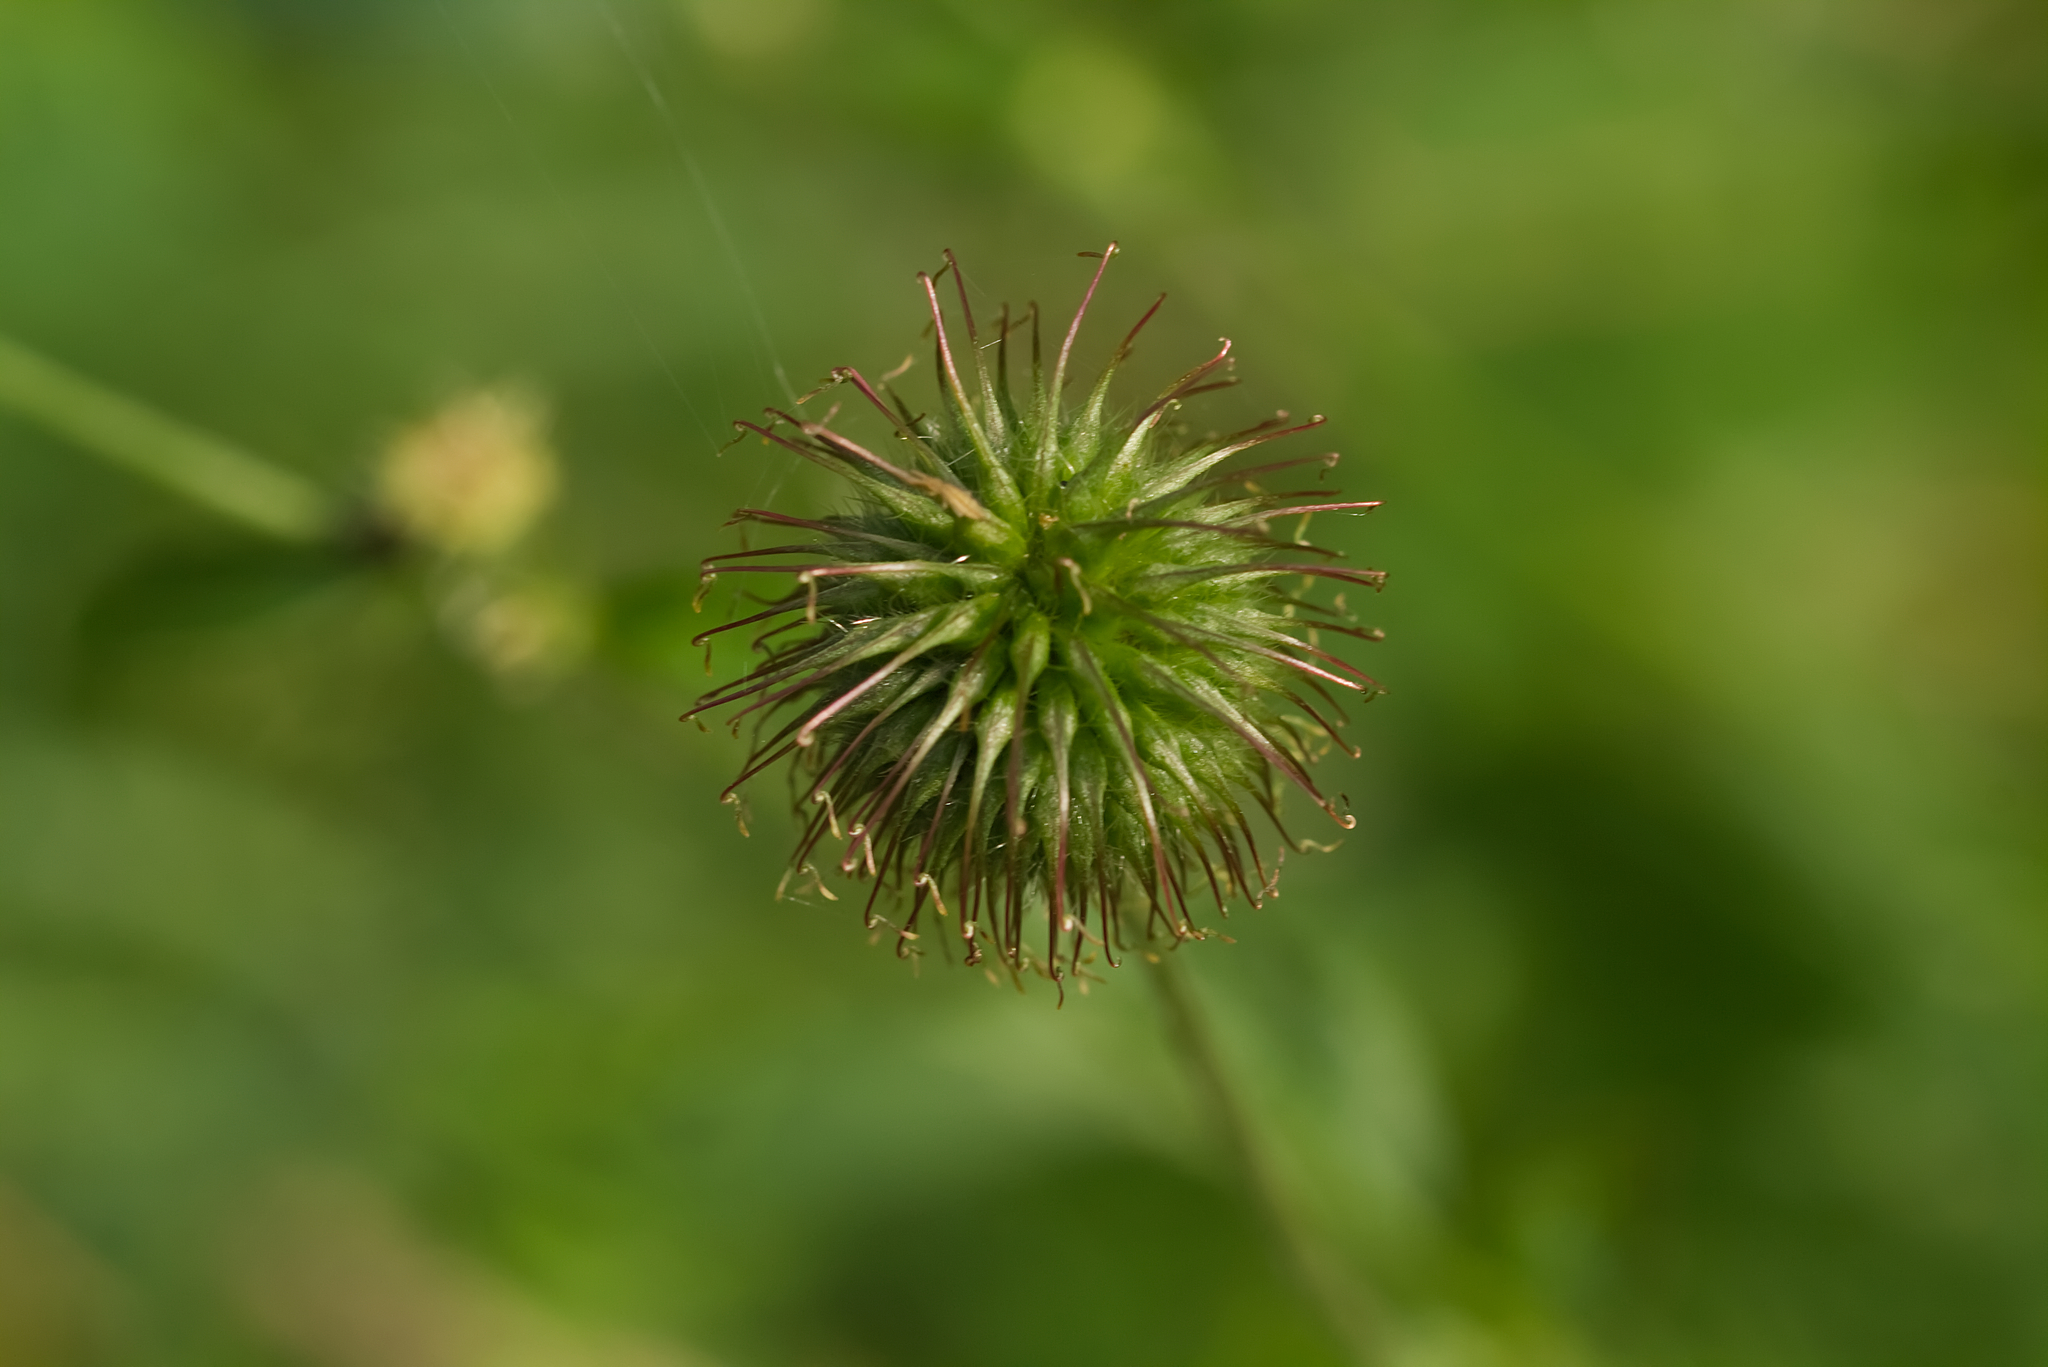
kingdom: Plantae
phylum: Tracheophyta
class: Magnoliopsida
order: Rosales
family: Rosaceae
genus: Geum
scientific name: Geum urbanum
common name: Wood avens
